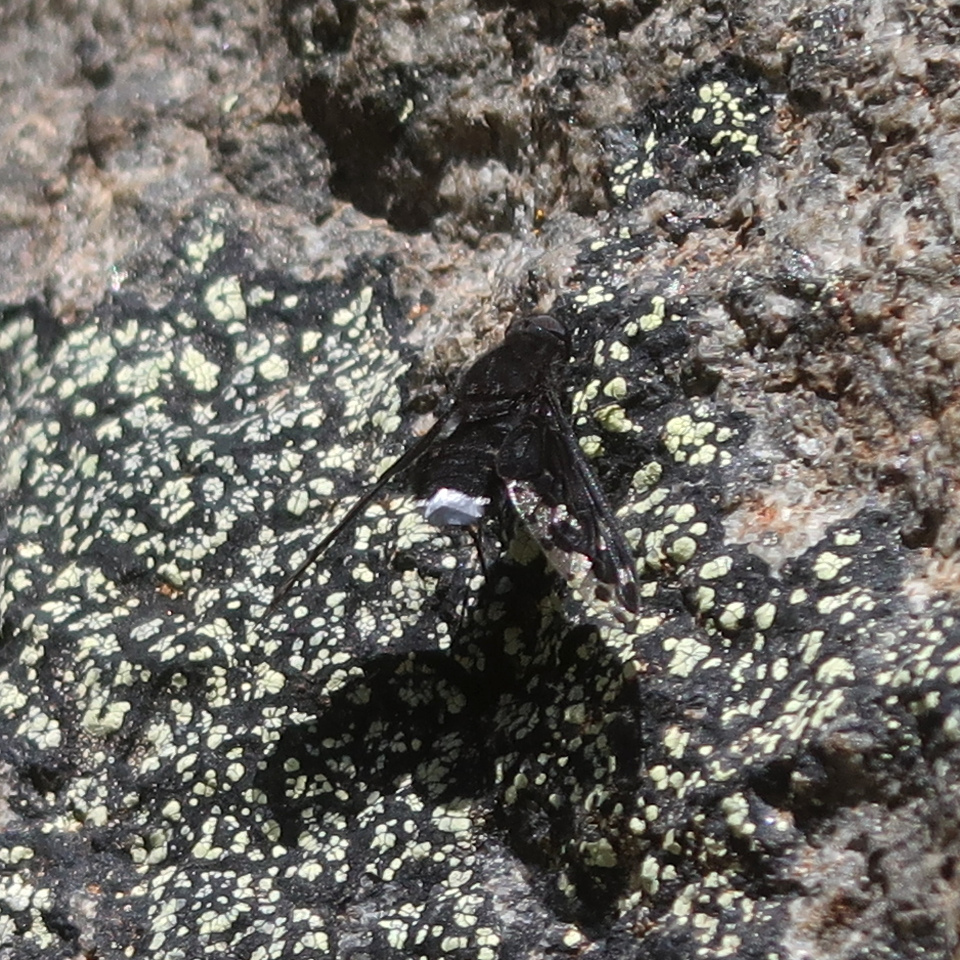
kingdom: Animalia
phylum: Arthropoda
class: Insecta
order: Diptera
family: Bombyliidae
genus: Anthrax
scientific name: Anthrax maculata
